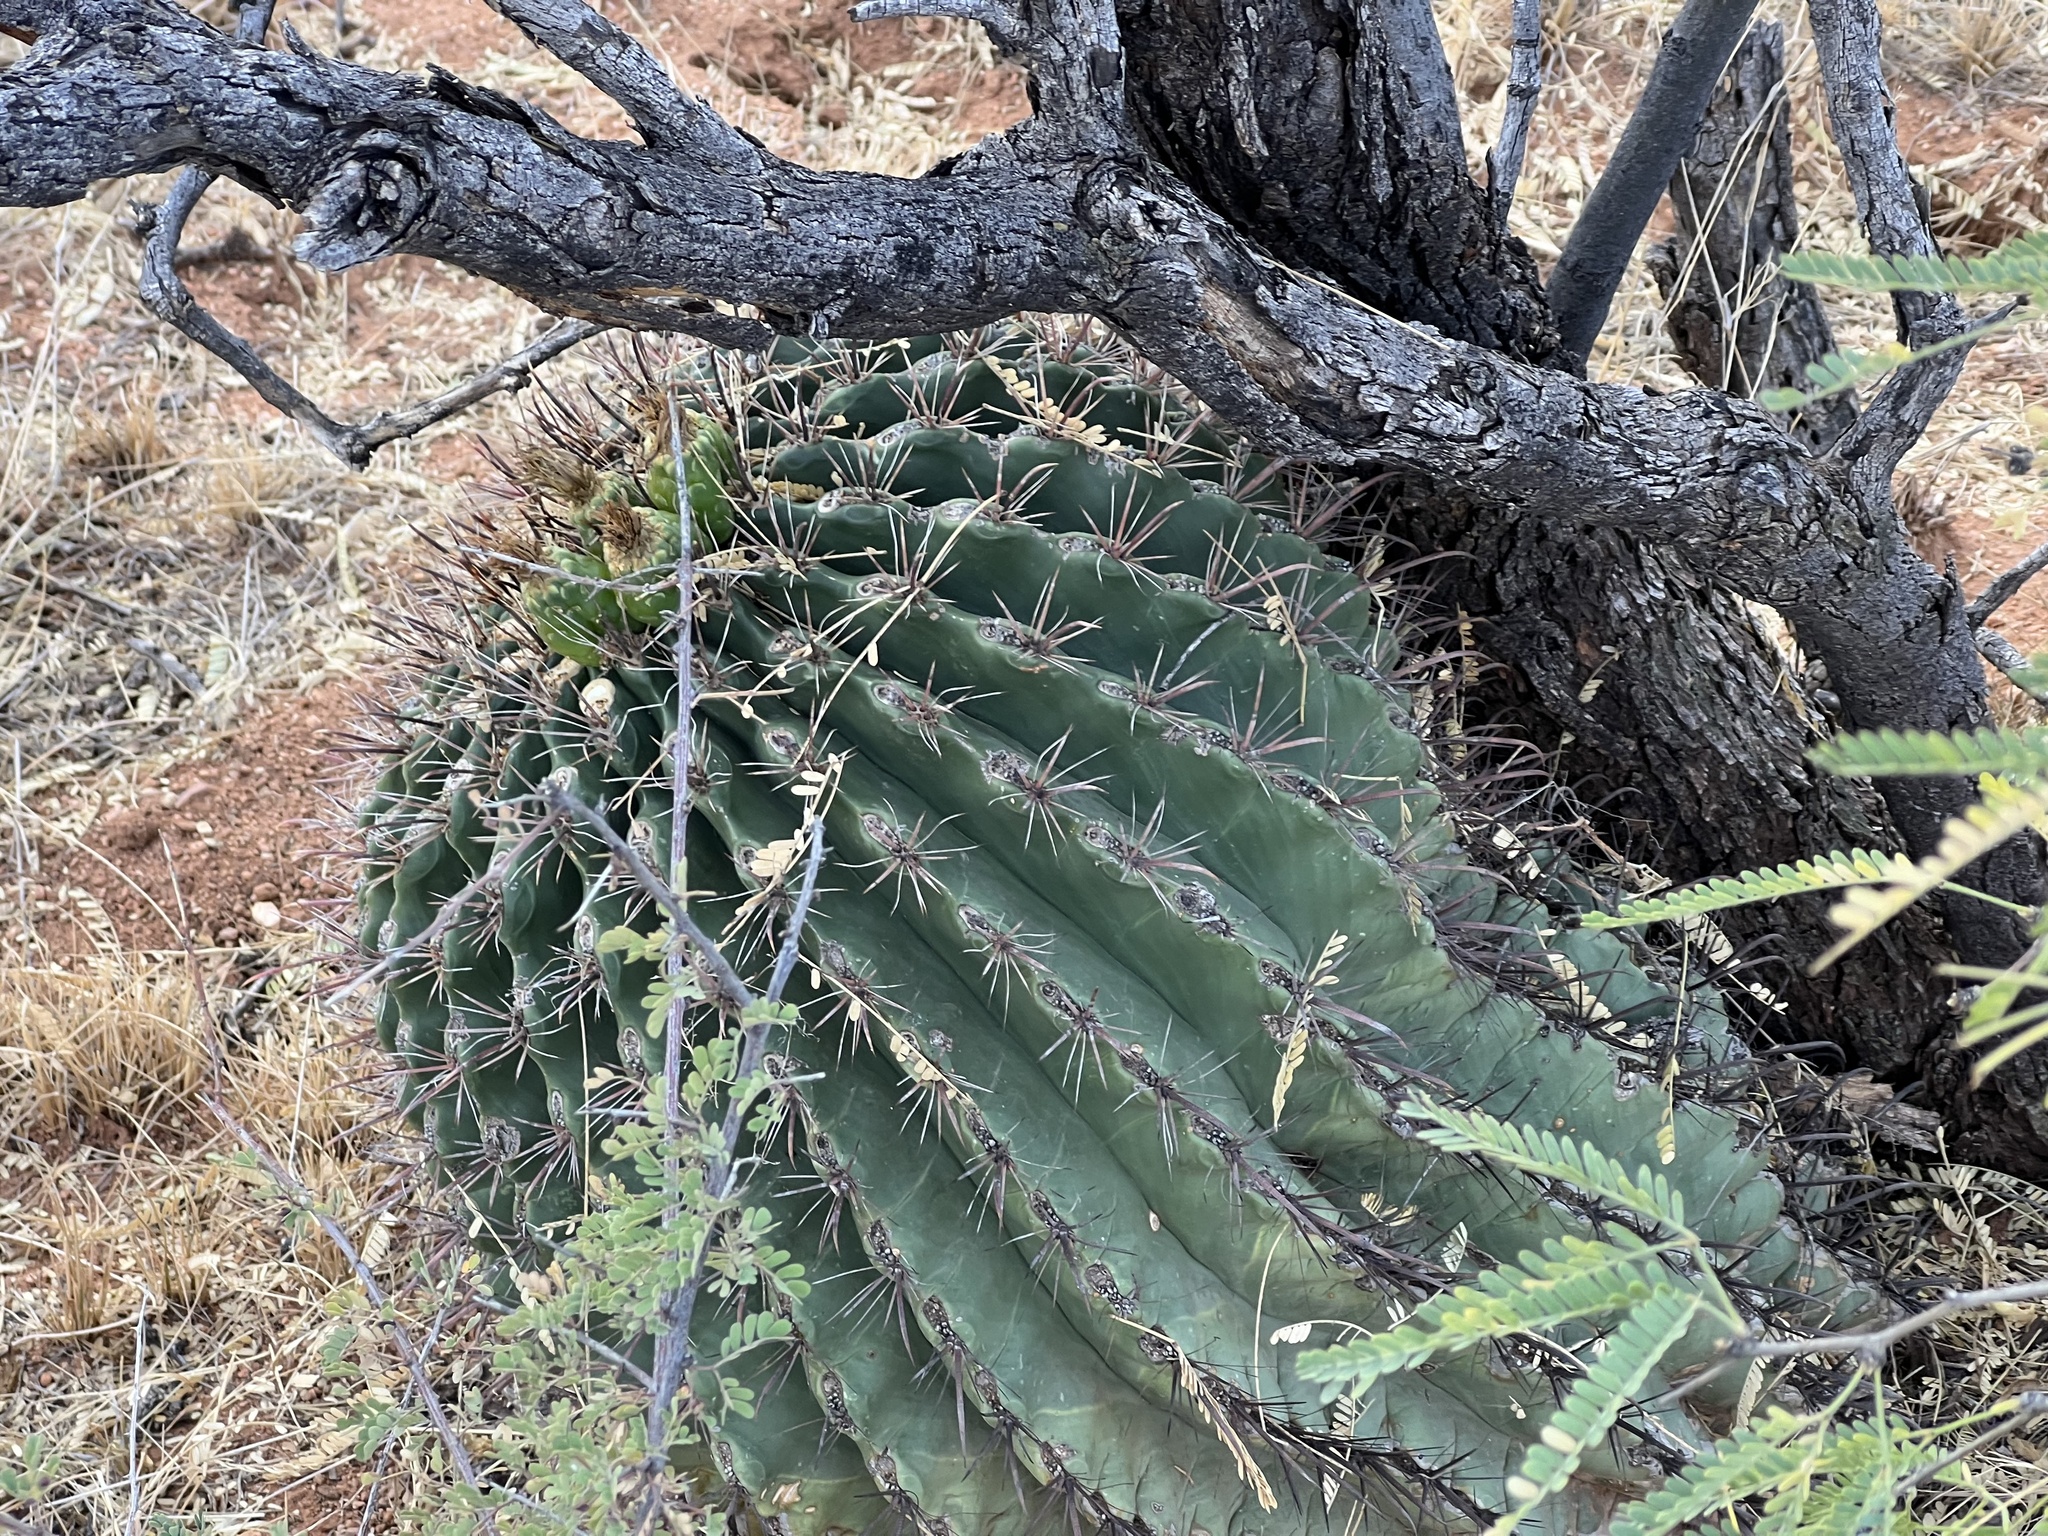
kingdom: Plantae
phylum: Tracheophyta
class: Magnoliopsida
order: Caryophyllales
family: Cactaceae
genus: Ferocactus
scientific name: Ferocactus wislizeni
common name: Candy barrel cactus
